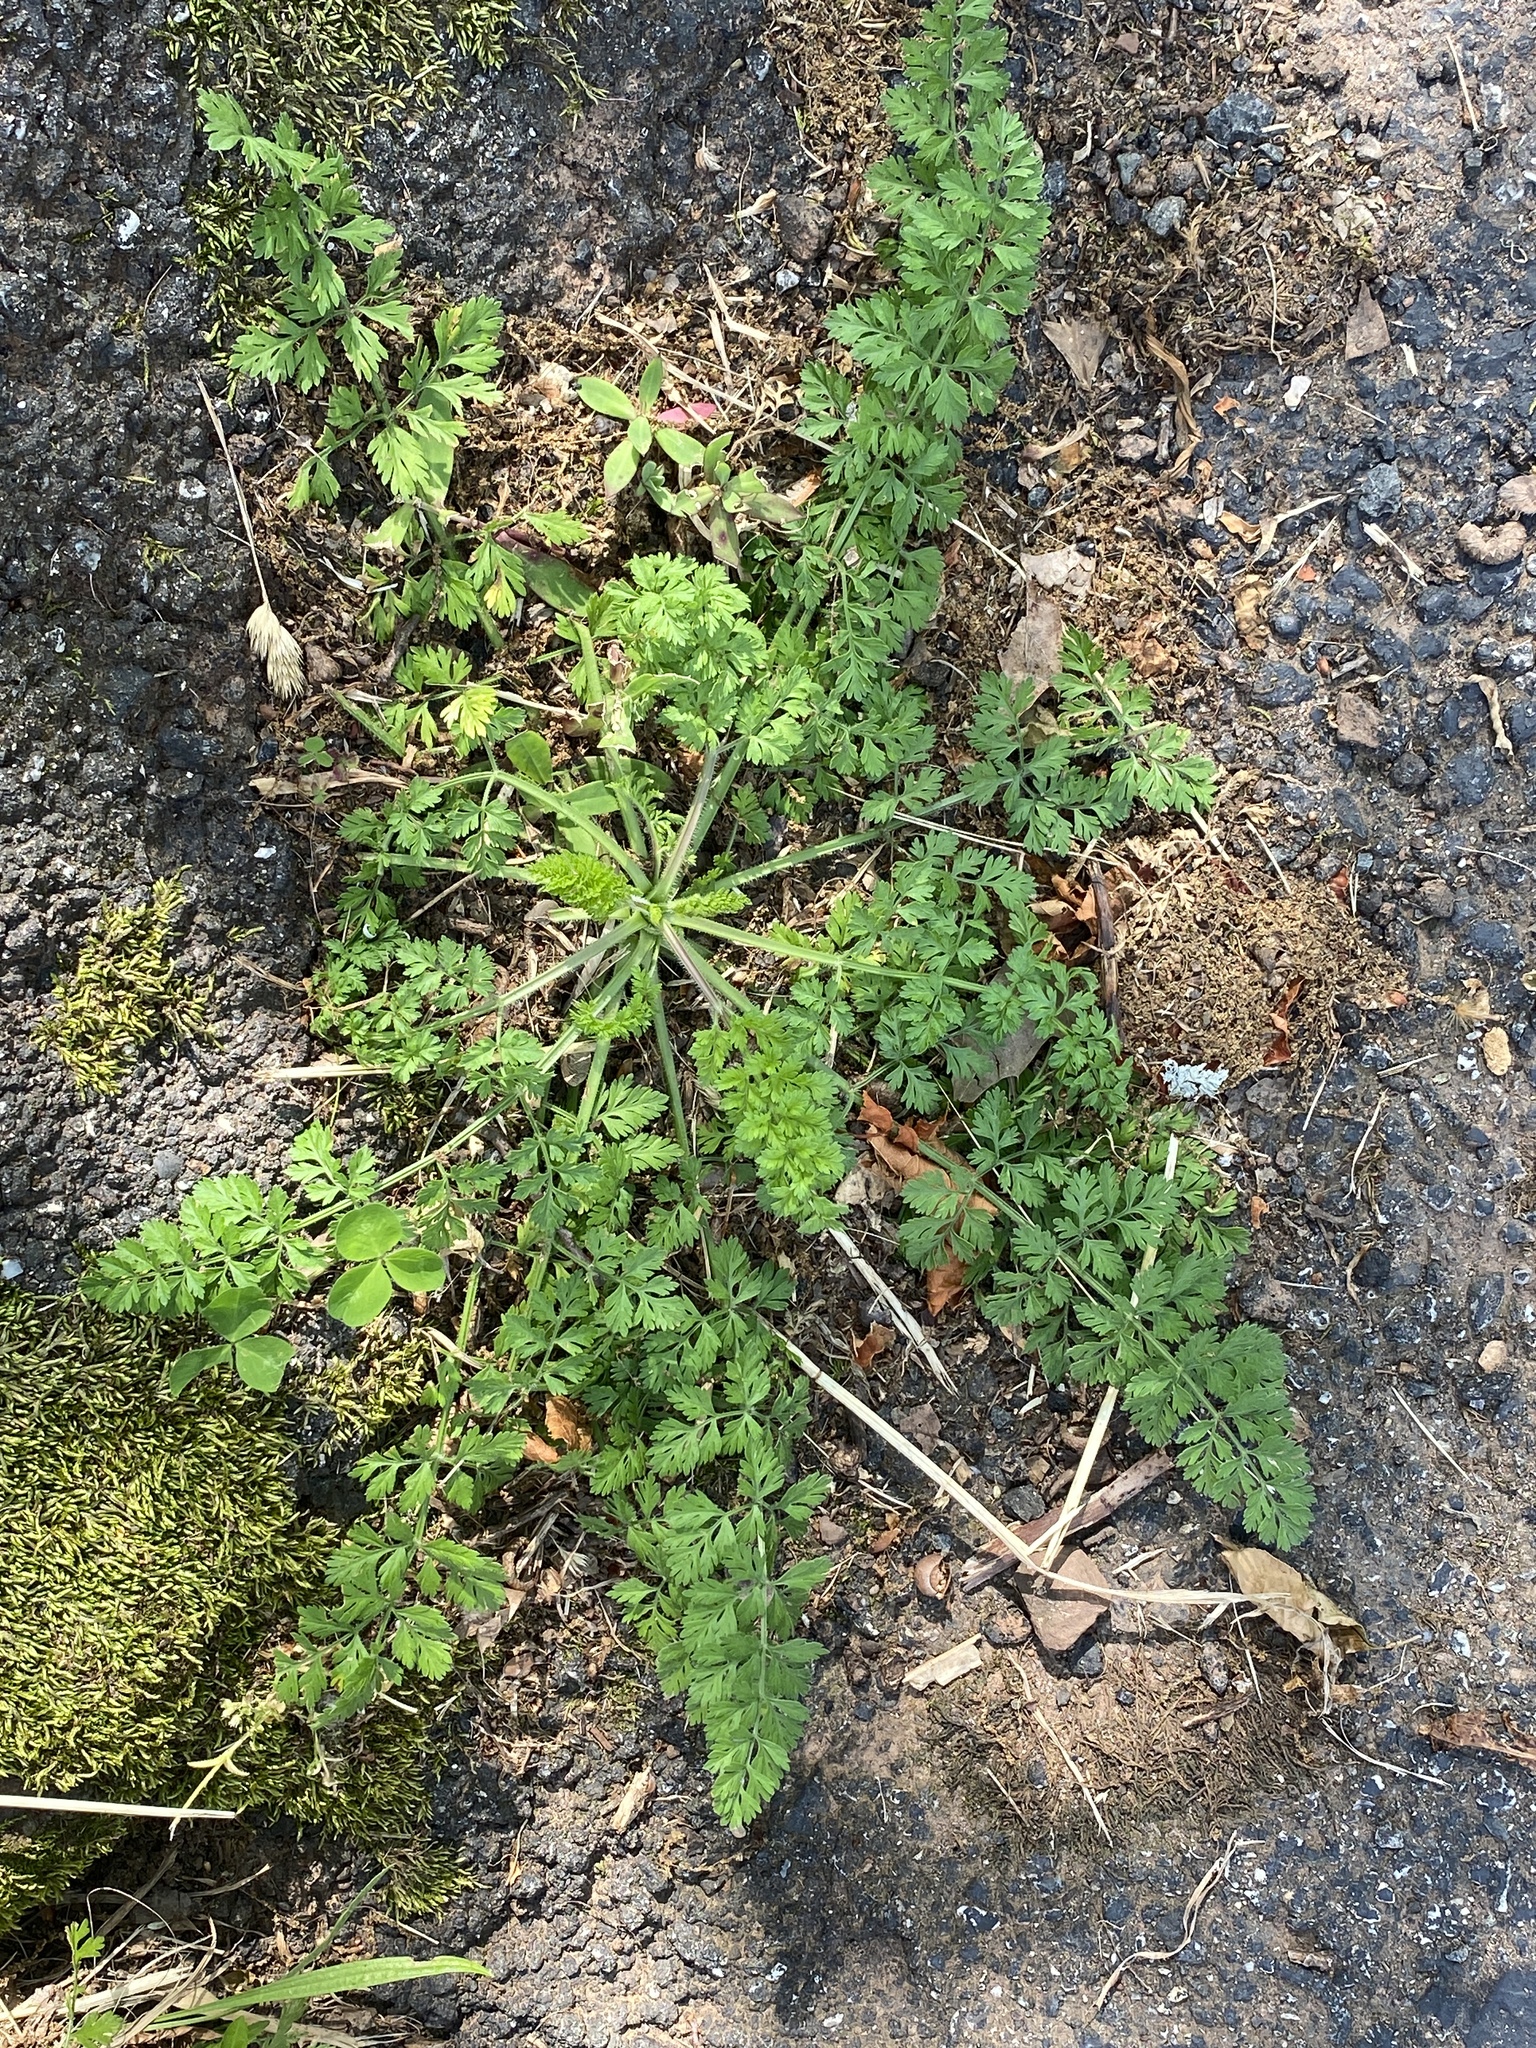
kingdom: Plantae
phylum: Tracheophyta
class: Magnoliopsida
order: Apiales
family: Apiaceae
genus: Daucus
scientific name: Daucus carota
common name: Wild carrot
